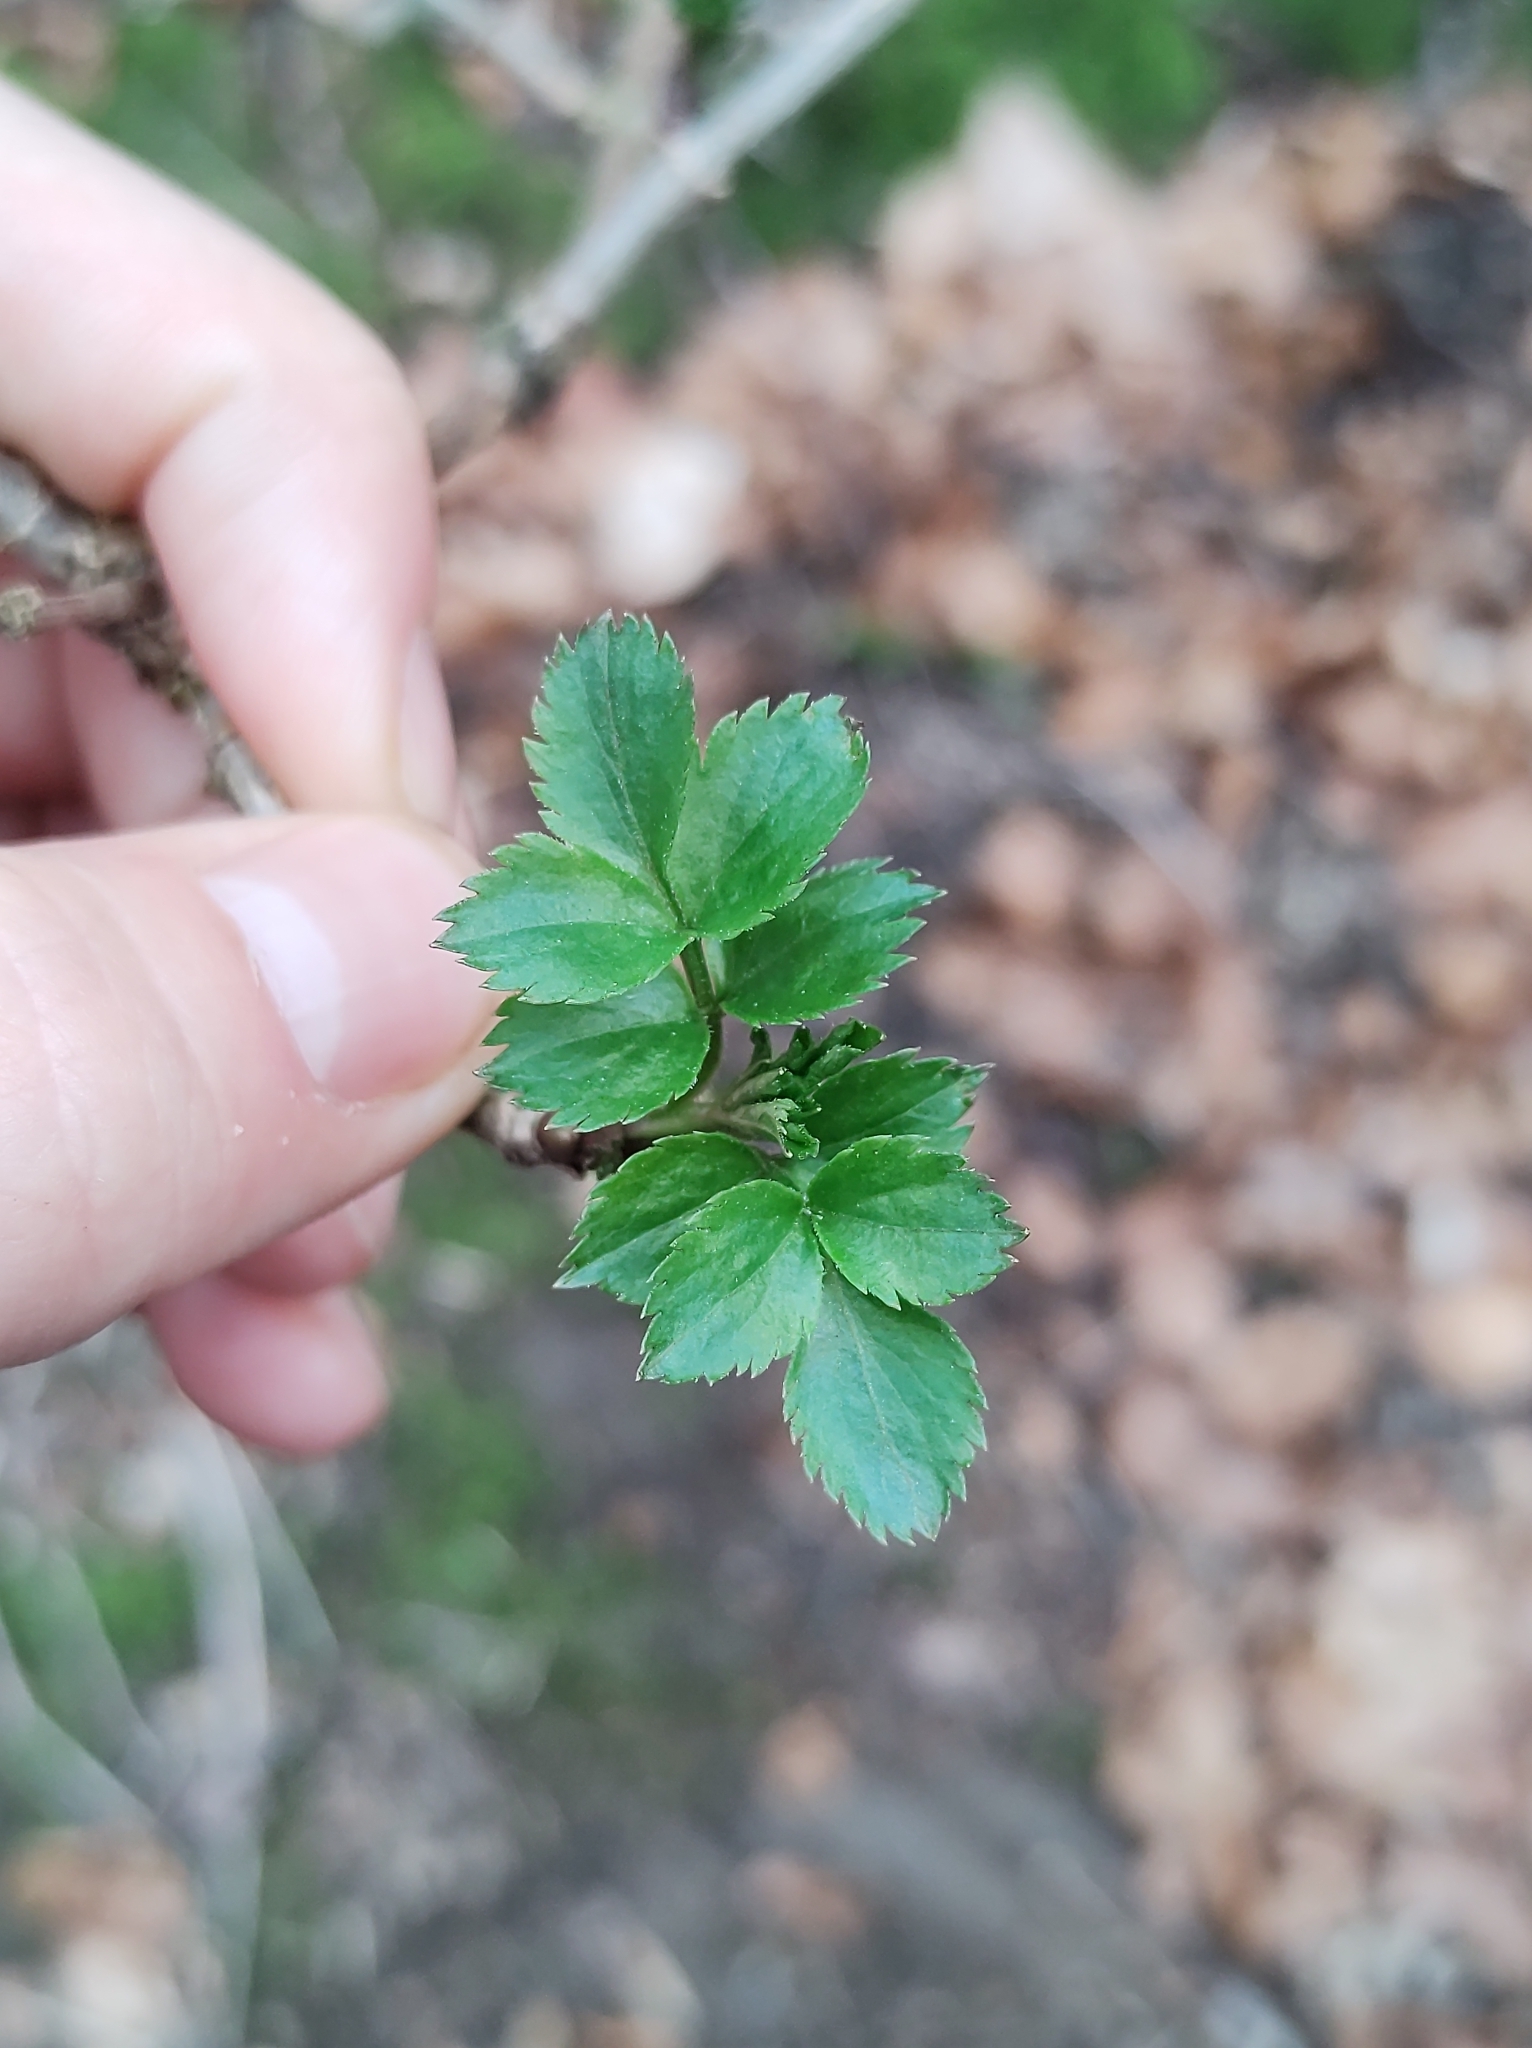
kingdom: Plantae
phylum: Tracheophyta
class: Magnoliopsida
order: Dipsacales
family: Viburnaceae
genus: Sambucus
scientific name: Sambucus nigra
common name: Elder
